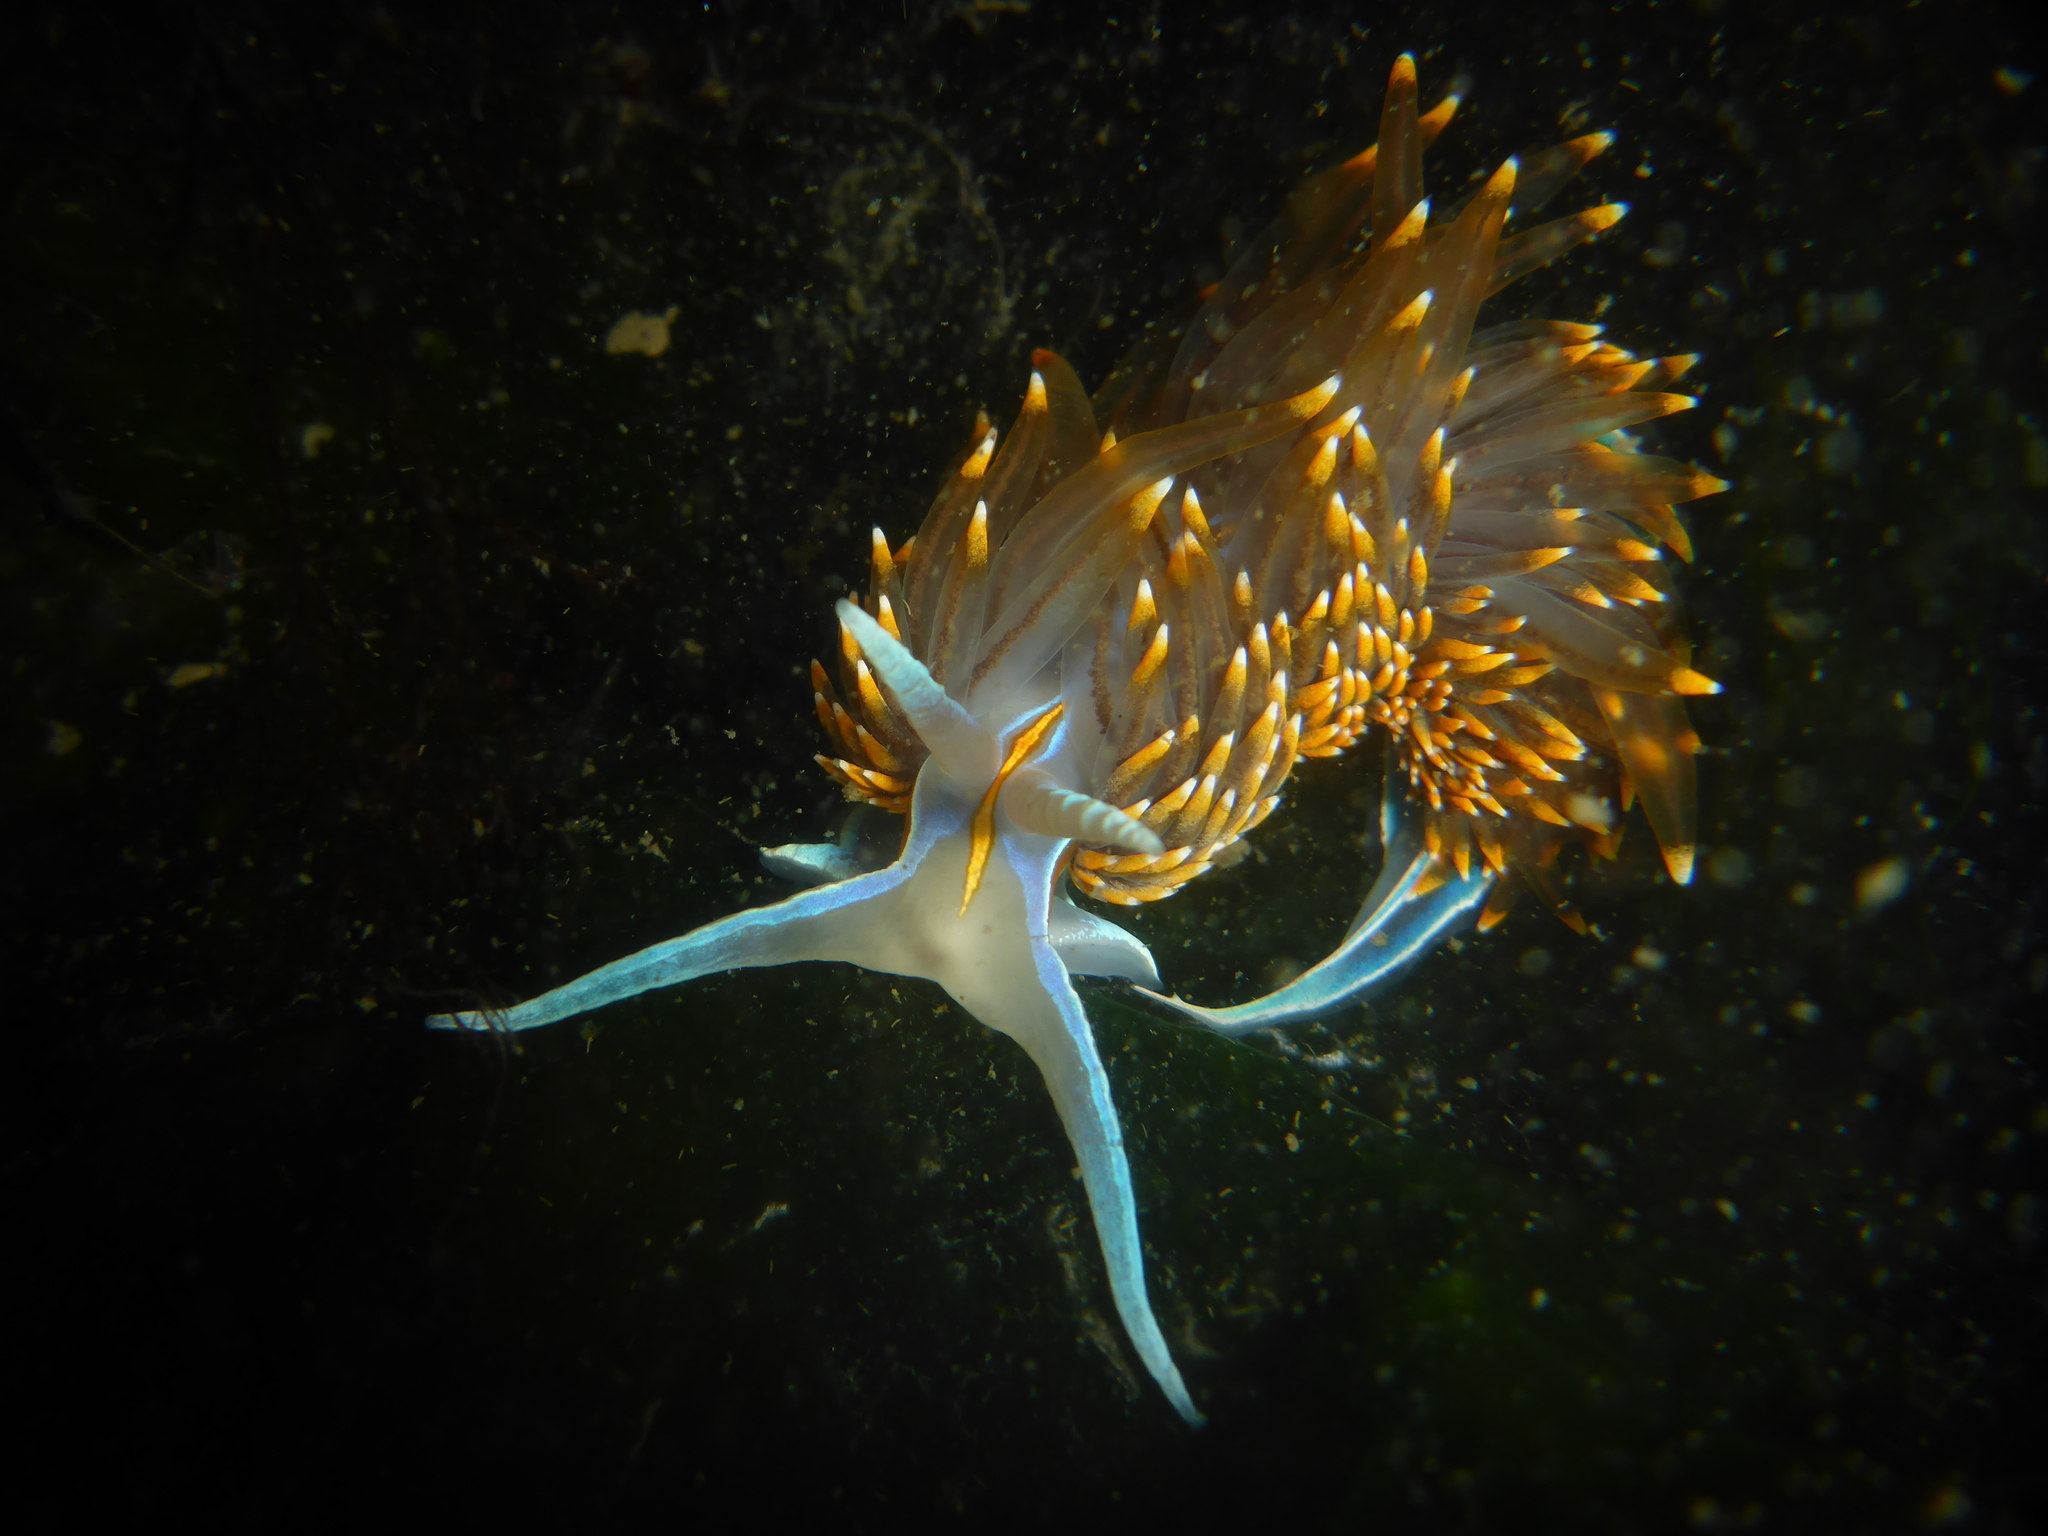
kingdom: Animalia
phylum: Mollusca
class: Gastropoda
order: Nudibranchia
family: Myrrhinidae
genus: Hermissenda
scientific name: Hermissenda opalescens
